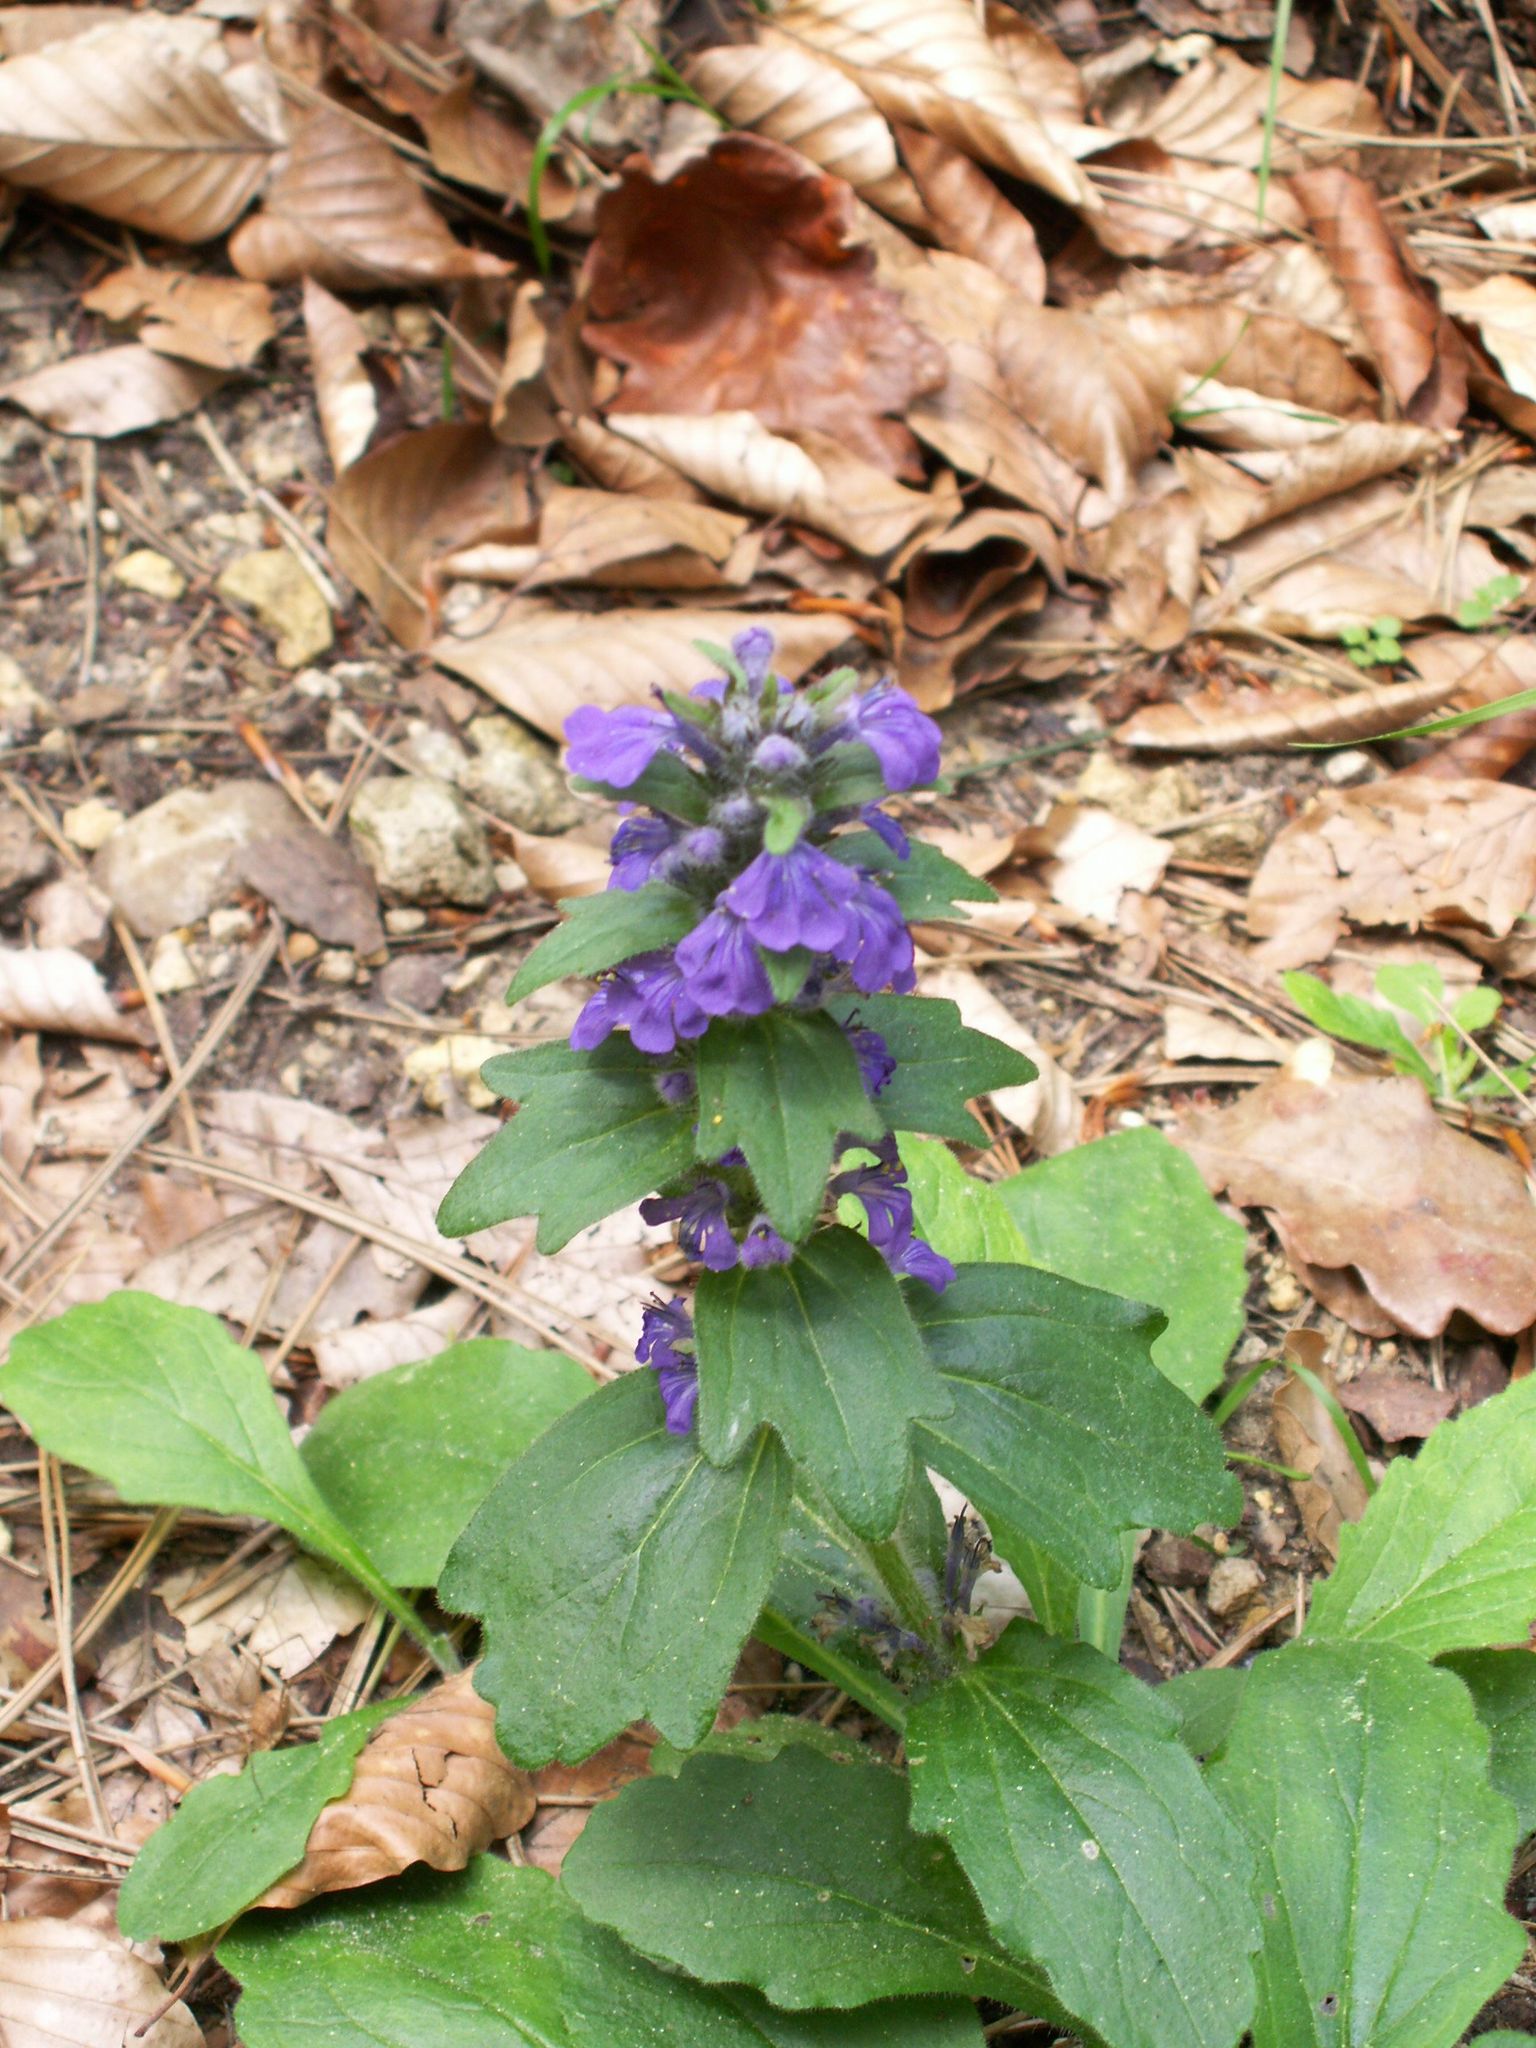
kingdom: Plantae
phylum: Tracheophyta
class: Magnoliopsida
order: Lamiales
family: Lamiaceae
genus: Ajuga
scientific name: Ajuga genevensis
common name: Blue bugle
